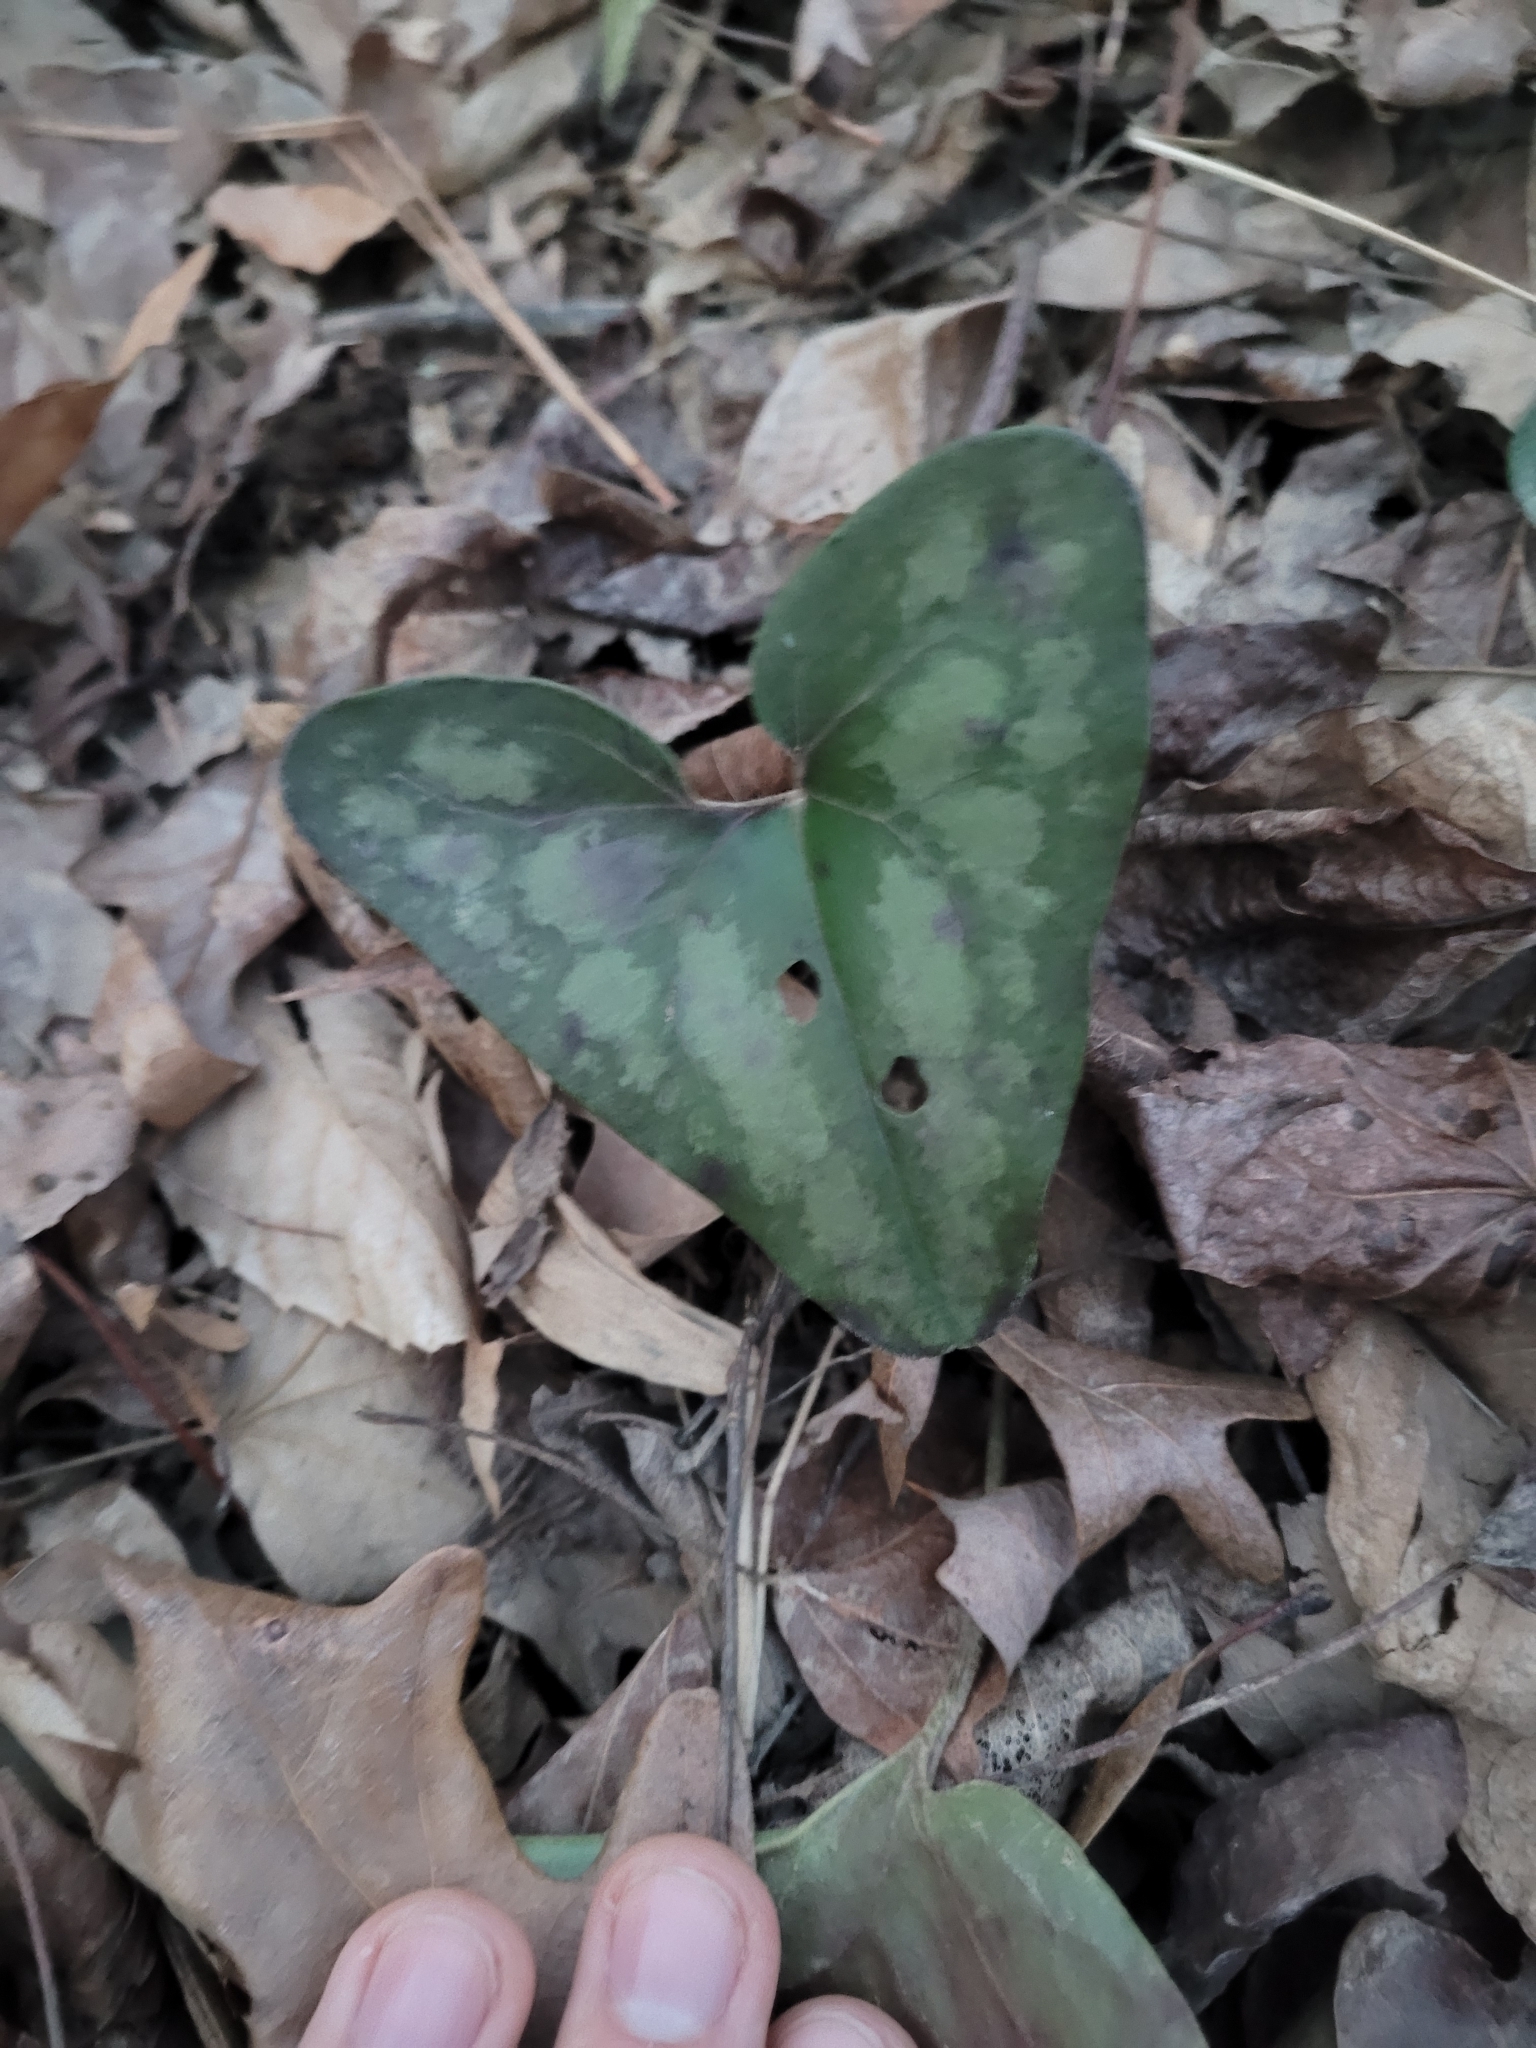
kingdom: Plantae
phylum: Tracheophyta
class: Magnoliopsida
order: Piperales
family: Aristolochiaceae
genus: Hexastylis
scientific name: Hexastylis arifolia
